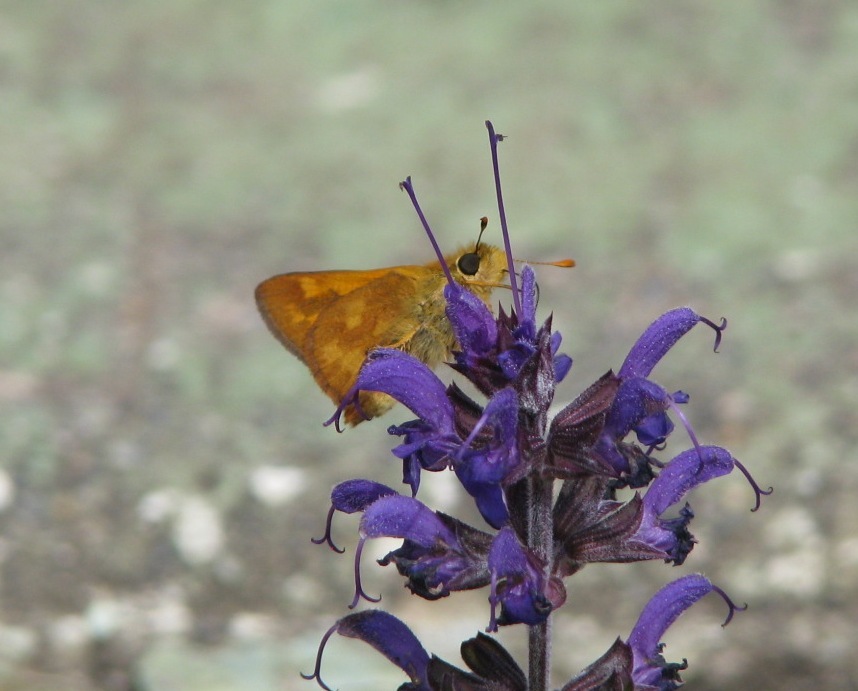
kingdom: Animalia
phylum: Arthropoda
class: Insecta
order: Lepidoptera
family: Hesperiidae
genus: Ochlodes
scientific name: Ochlodes sylvanoides
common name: Woodland skipper
